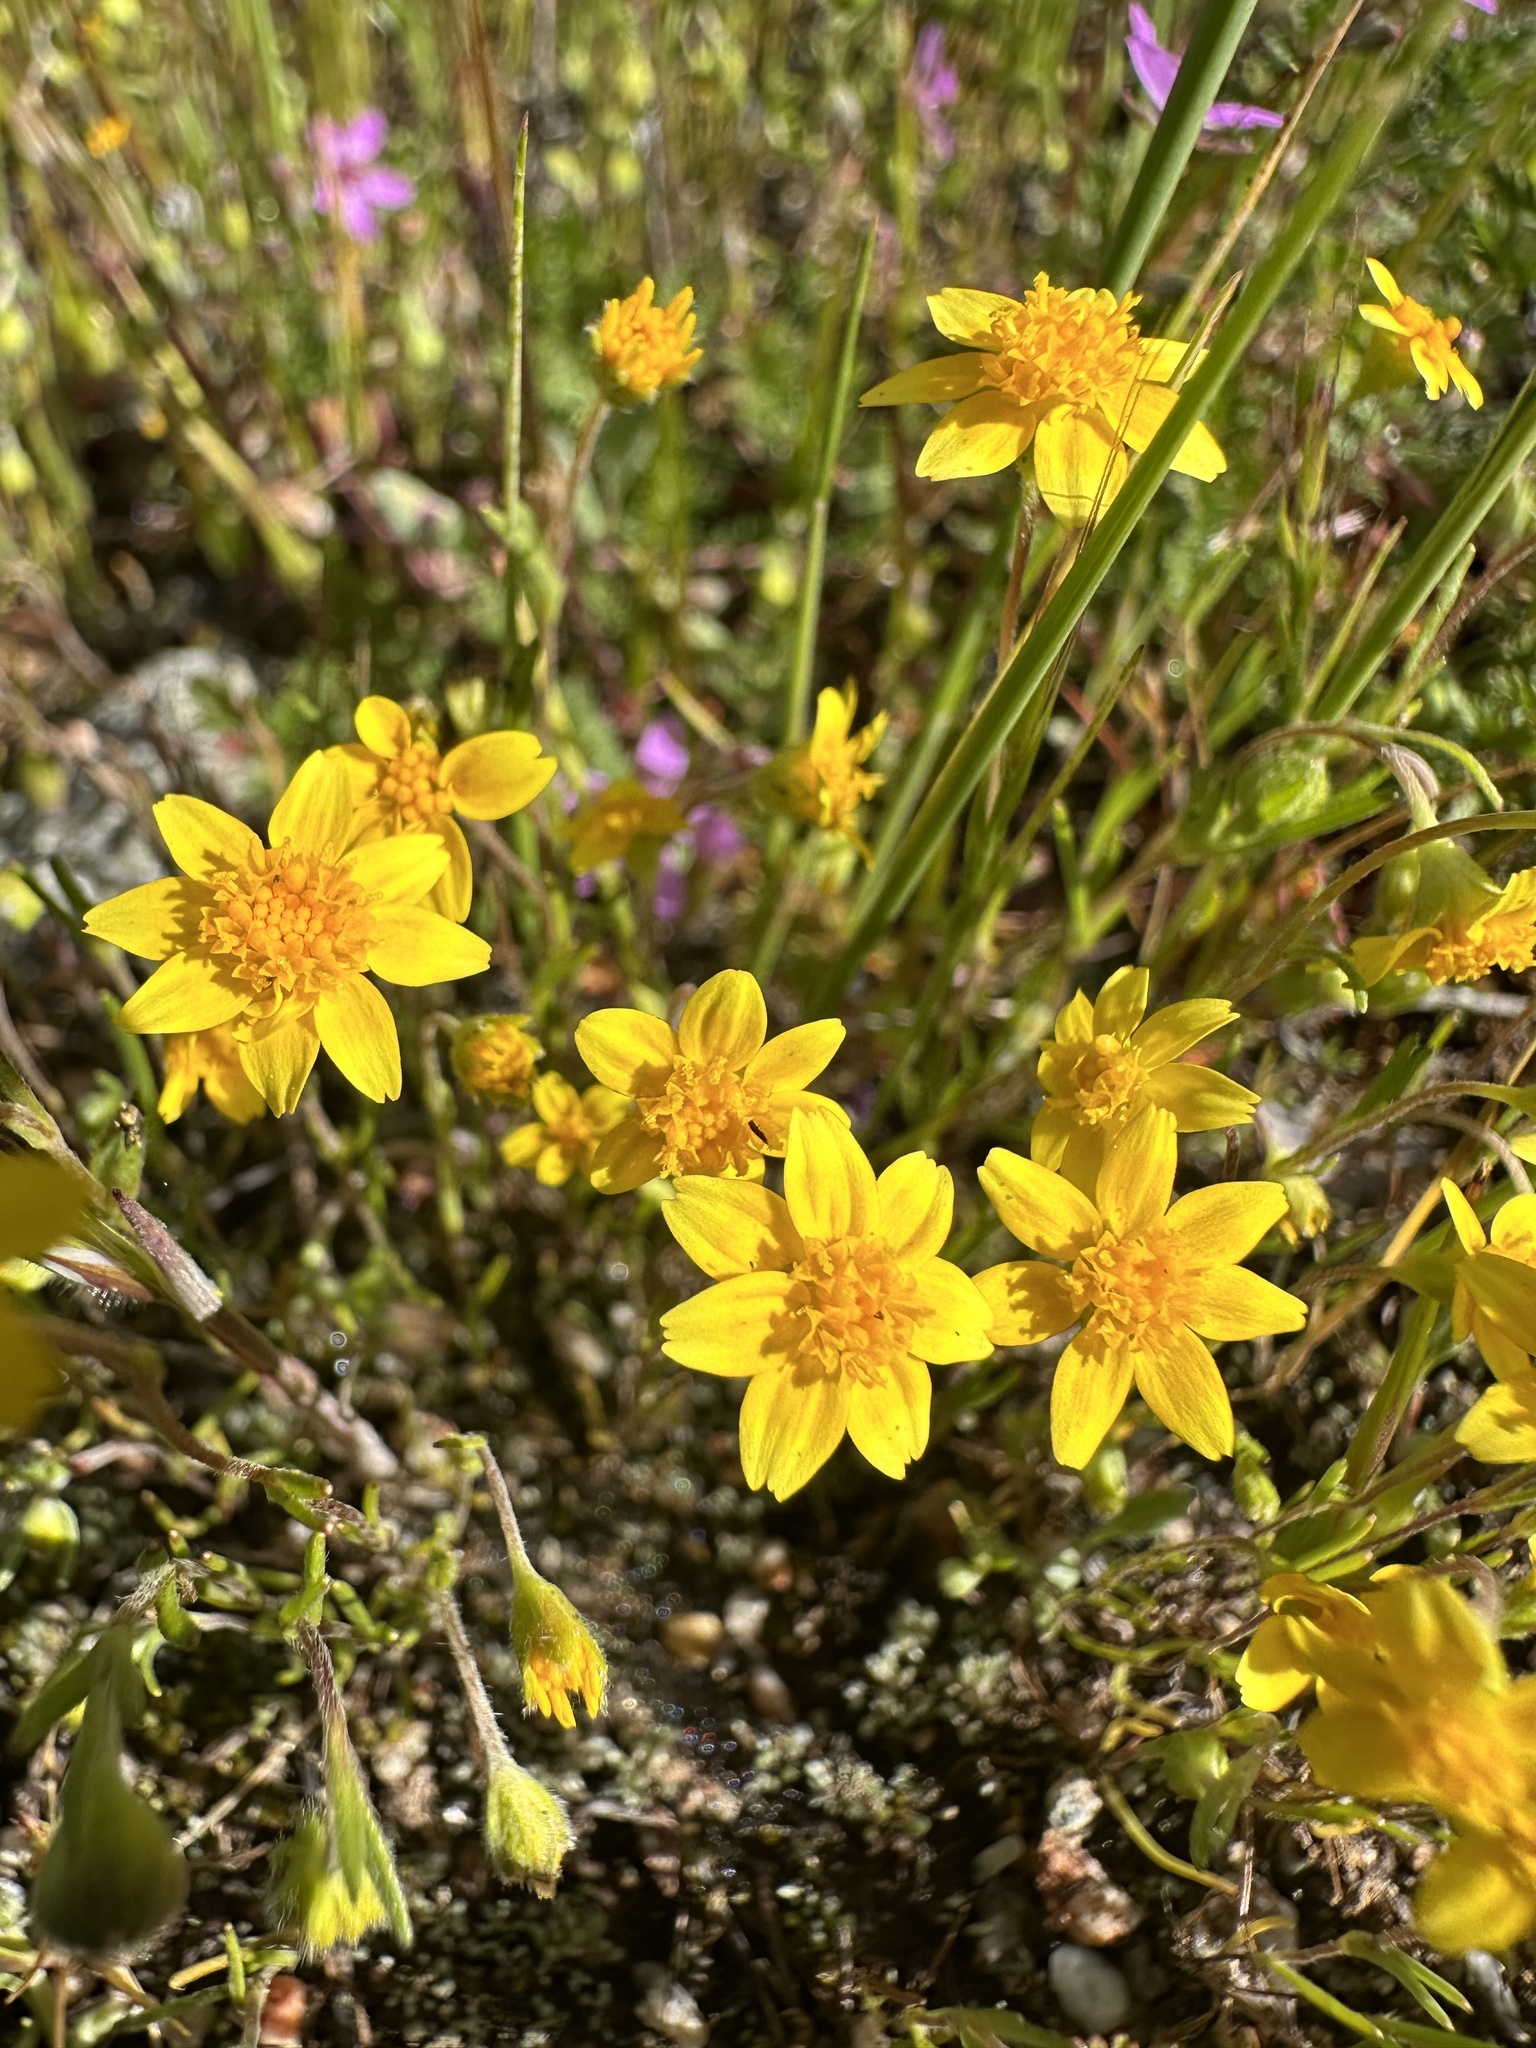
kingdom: Plantae
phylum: Tracheophyta
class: Magnoliopsida
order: Asterales
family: Asteraceae
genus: Lasthenia
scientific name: Lasthenia californica
